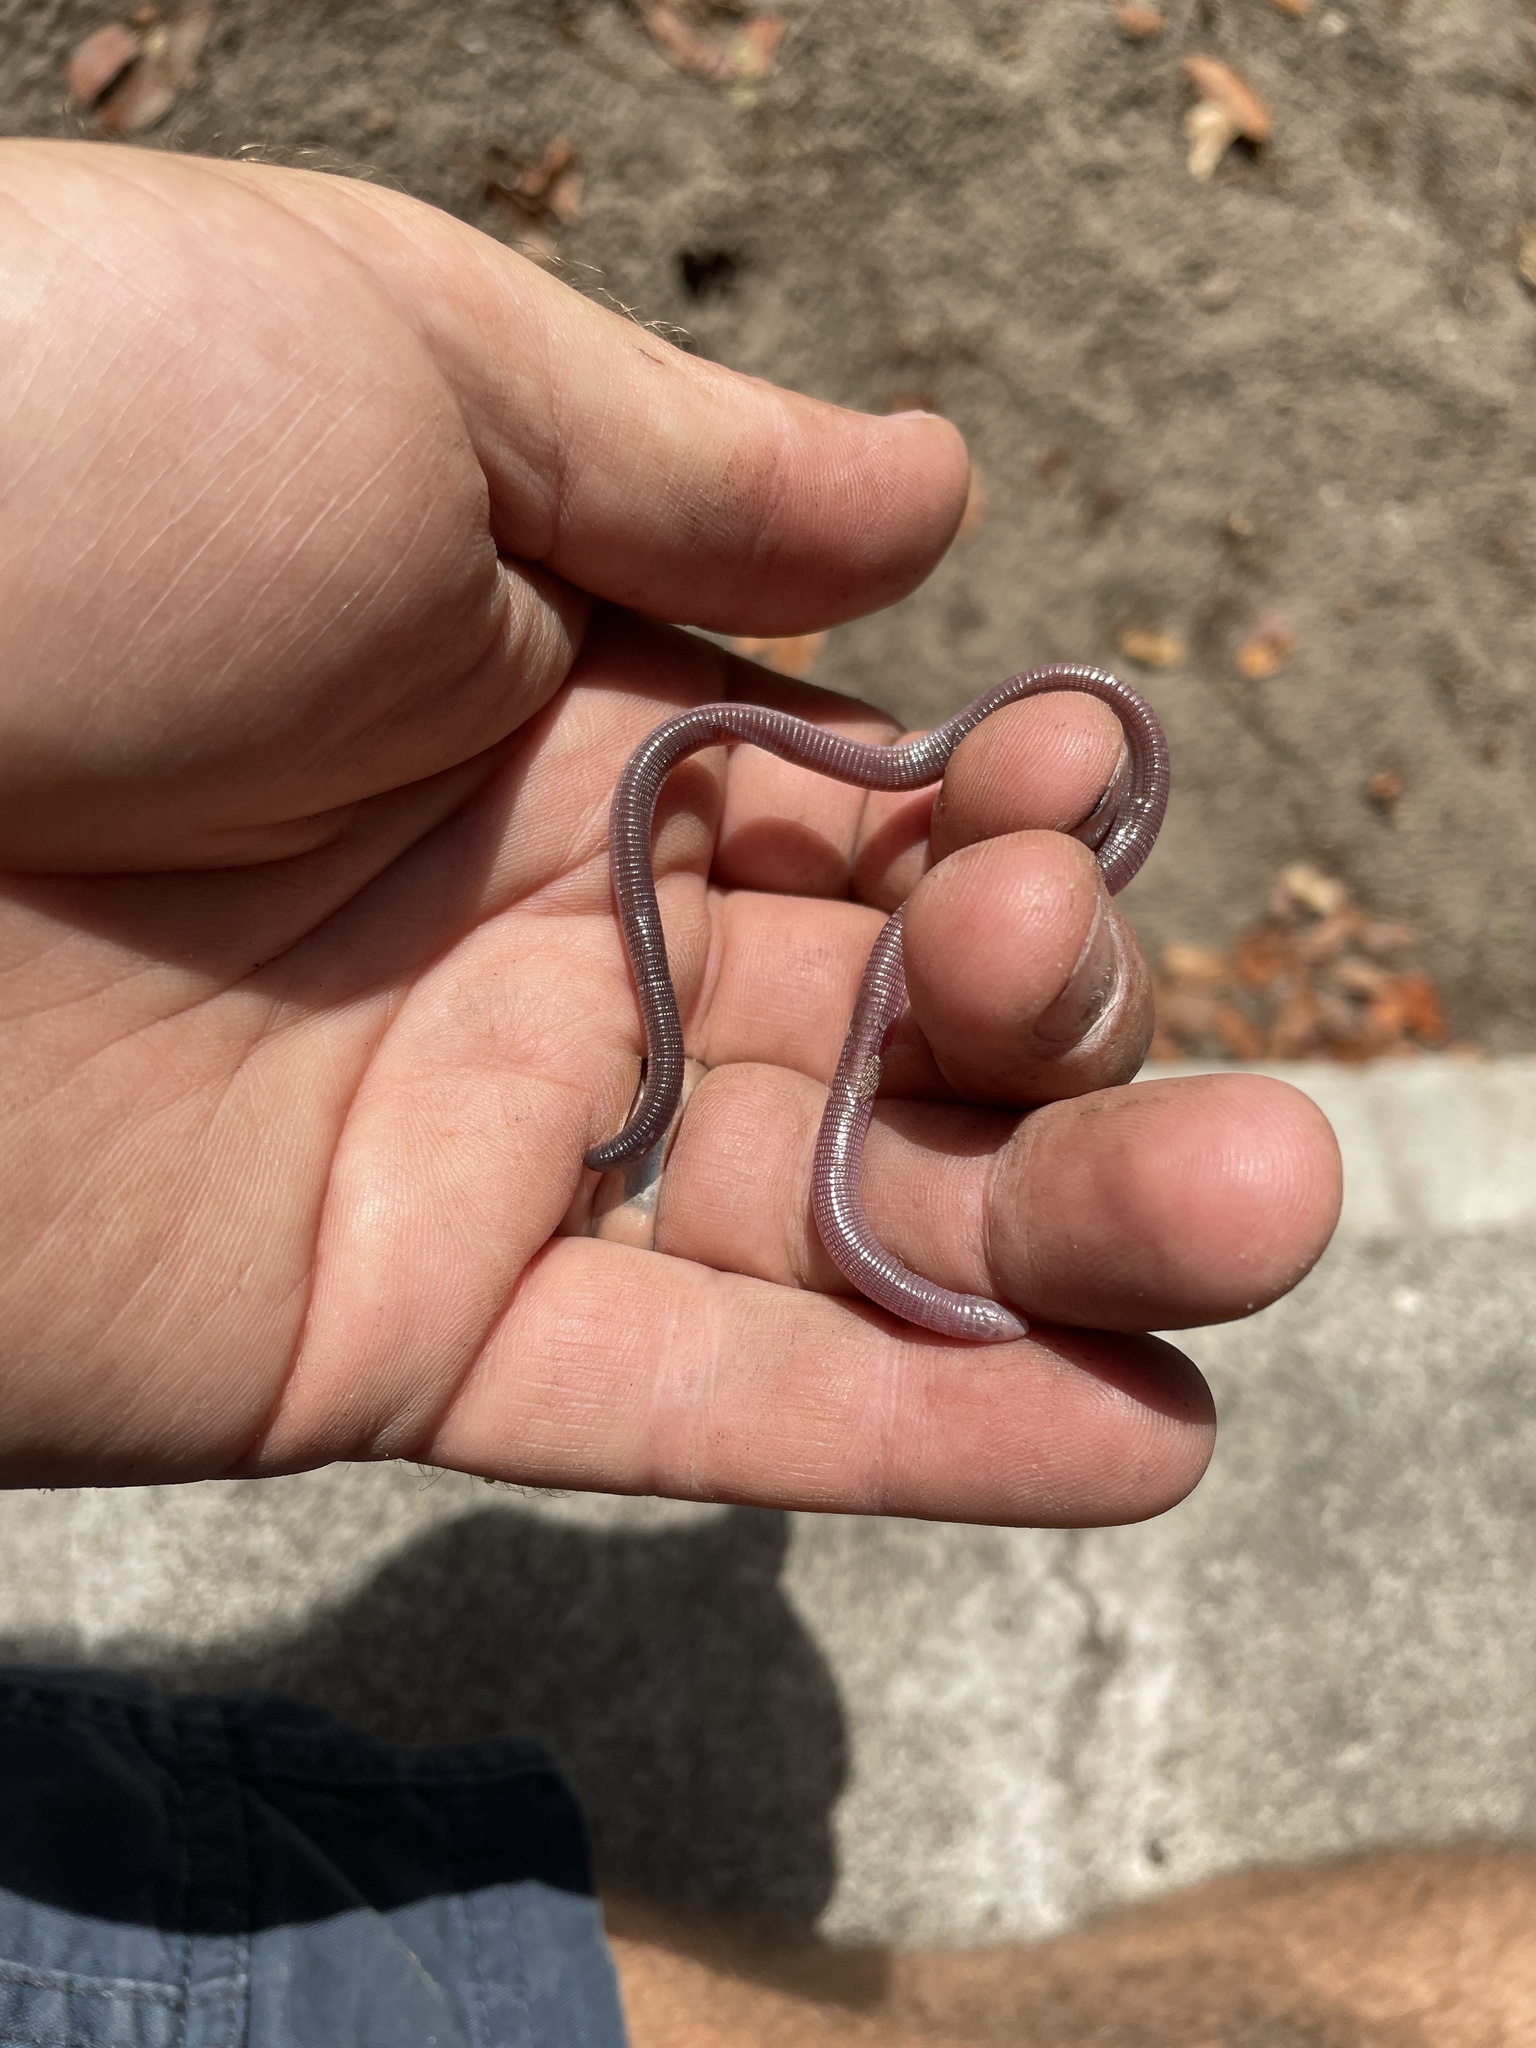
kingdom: Animalia
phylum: Chordata
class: Squamata
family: Amphisbaenidae
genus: Zygaspis
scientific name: Zygaspis quadrifrons
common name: Kalahari dwarf worm lizard
